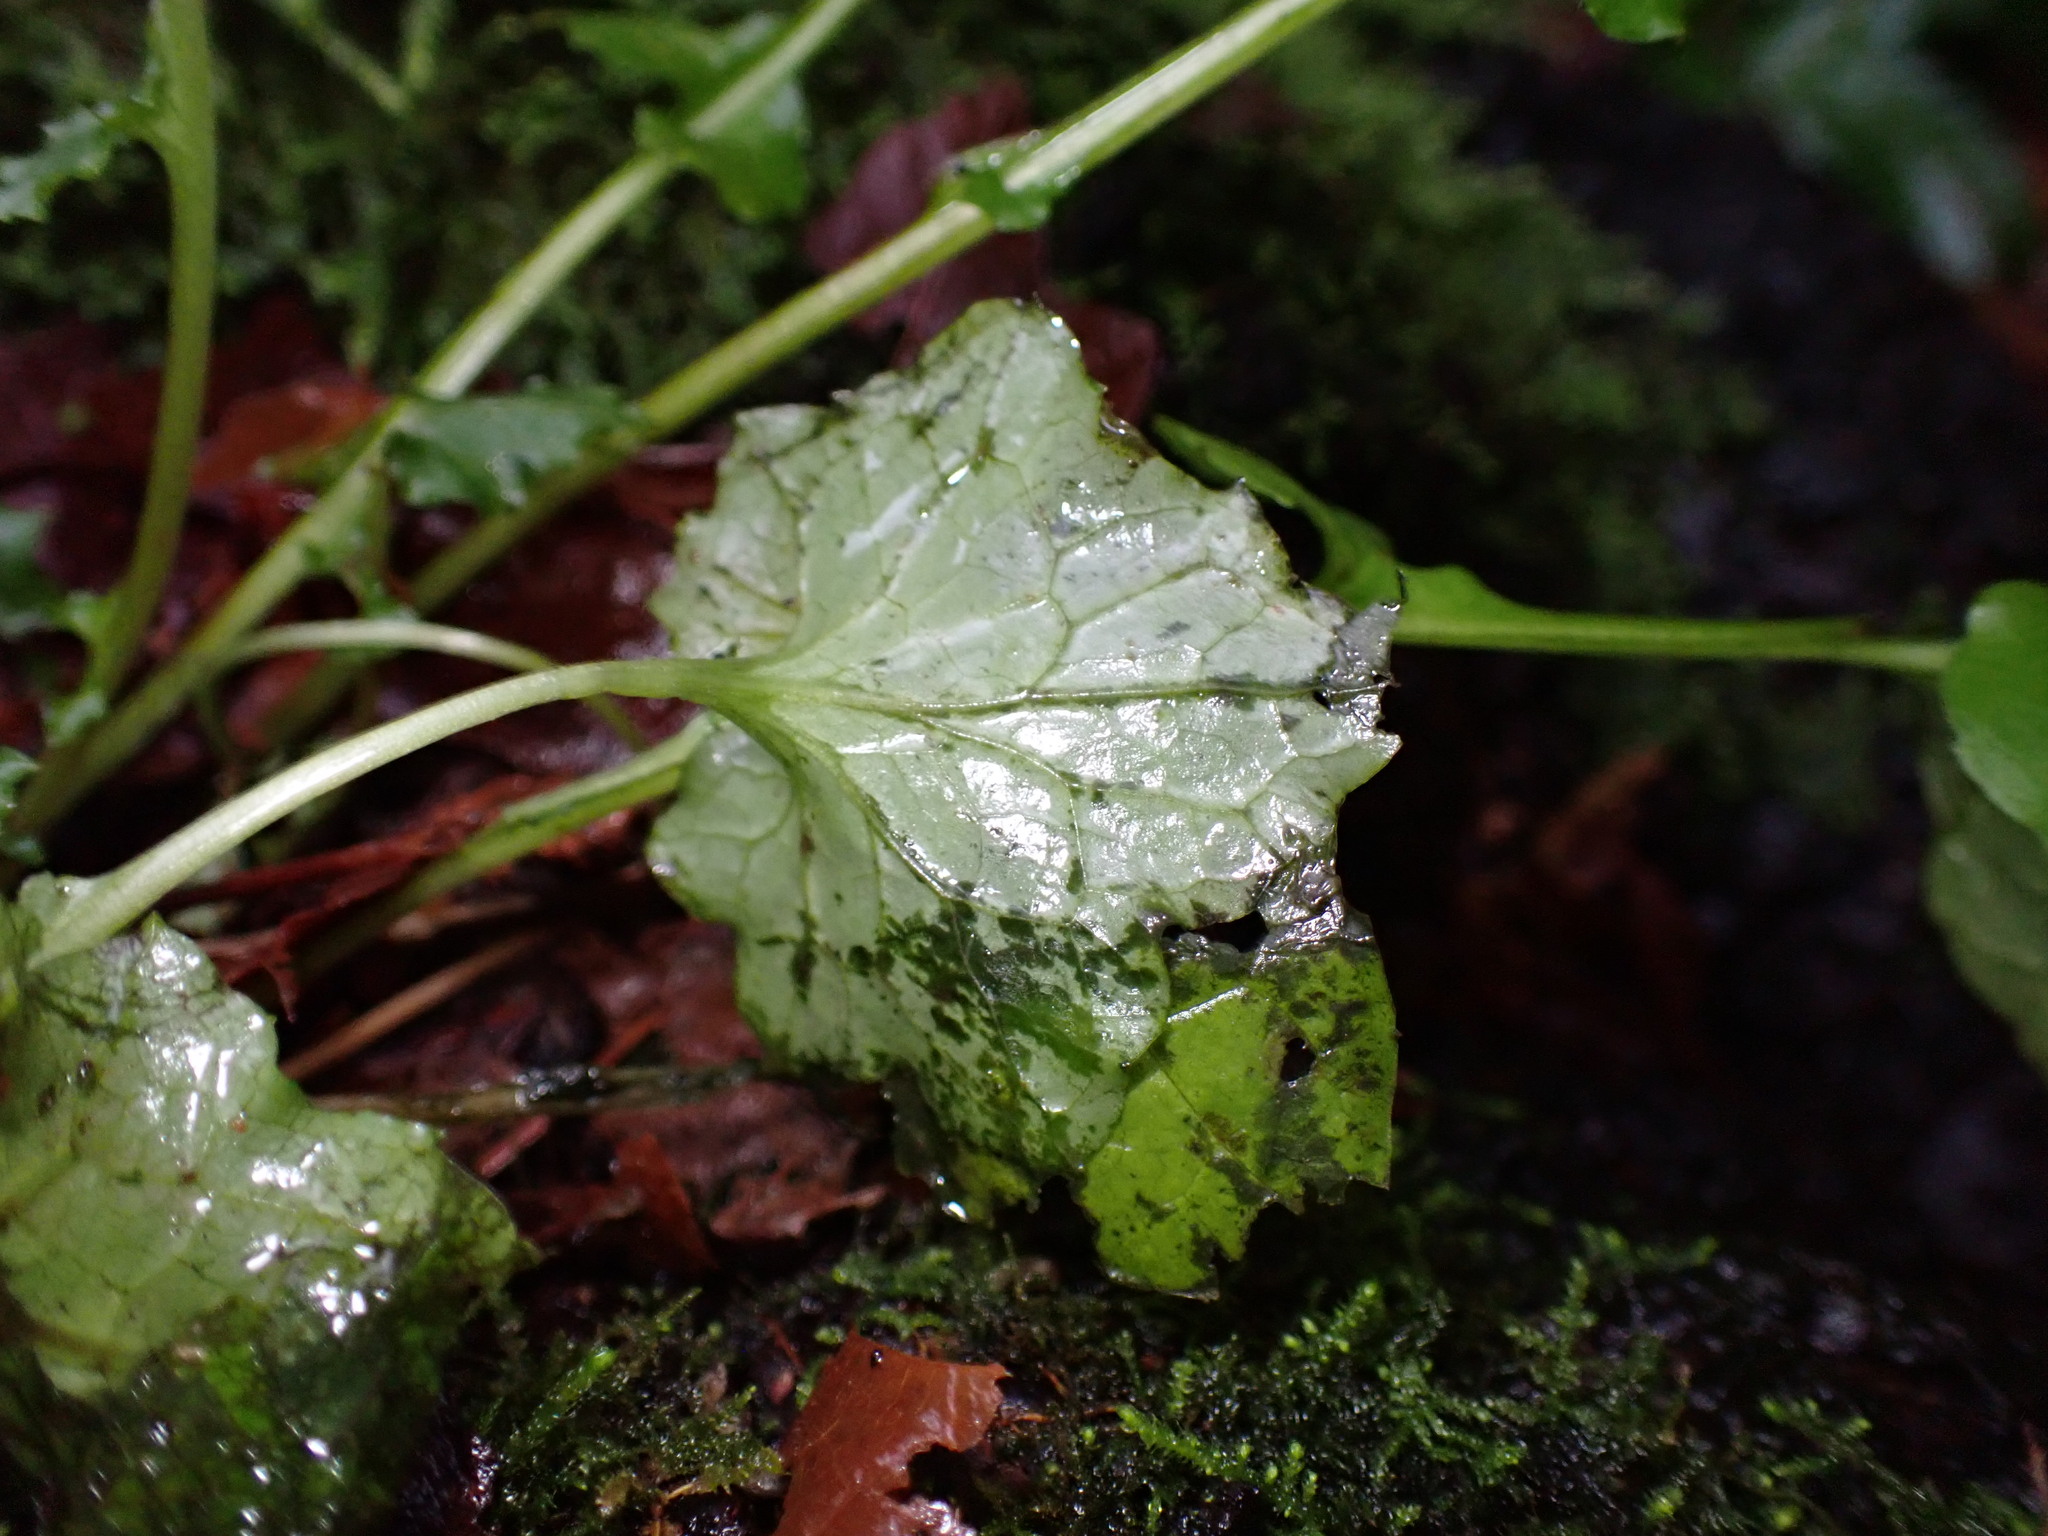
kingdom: Plantae
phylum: Tracheophyta
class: Magnoliopsida
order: Asterales
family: Asteraceae
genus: Mycelis
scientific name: Mycelis muralis
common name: Wall lettuce
